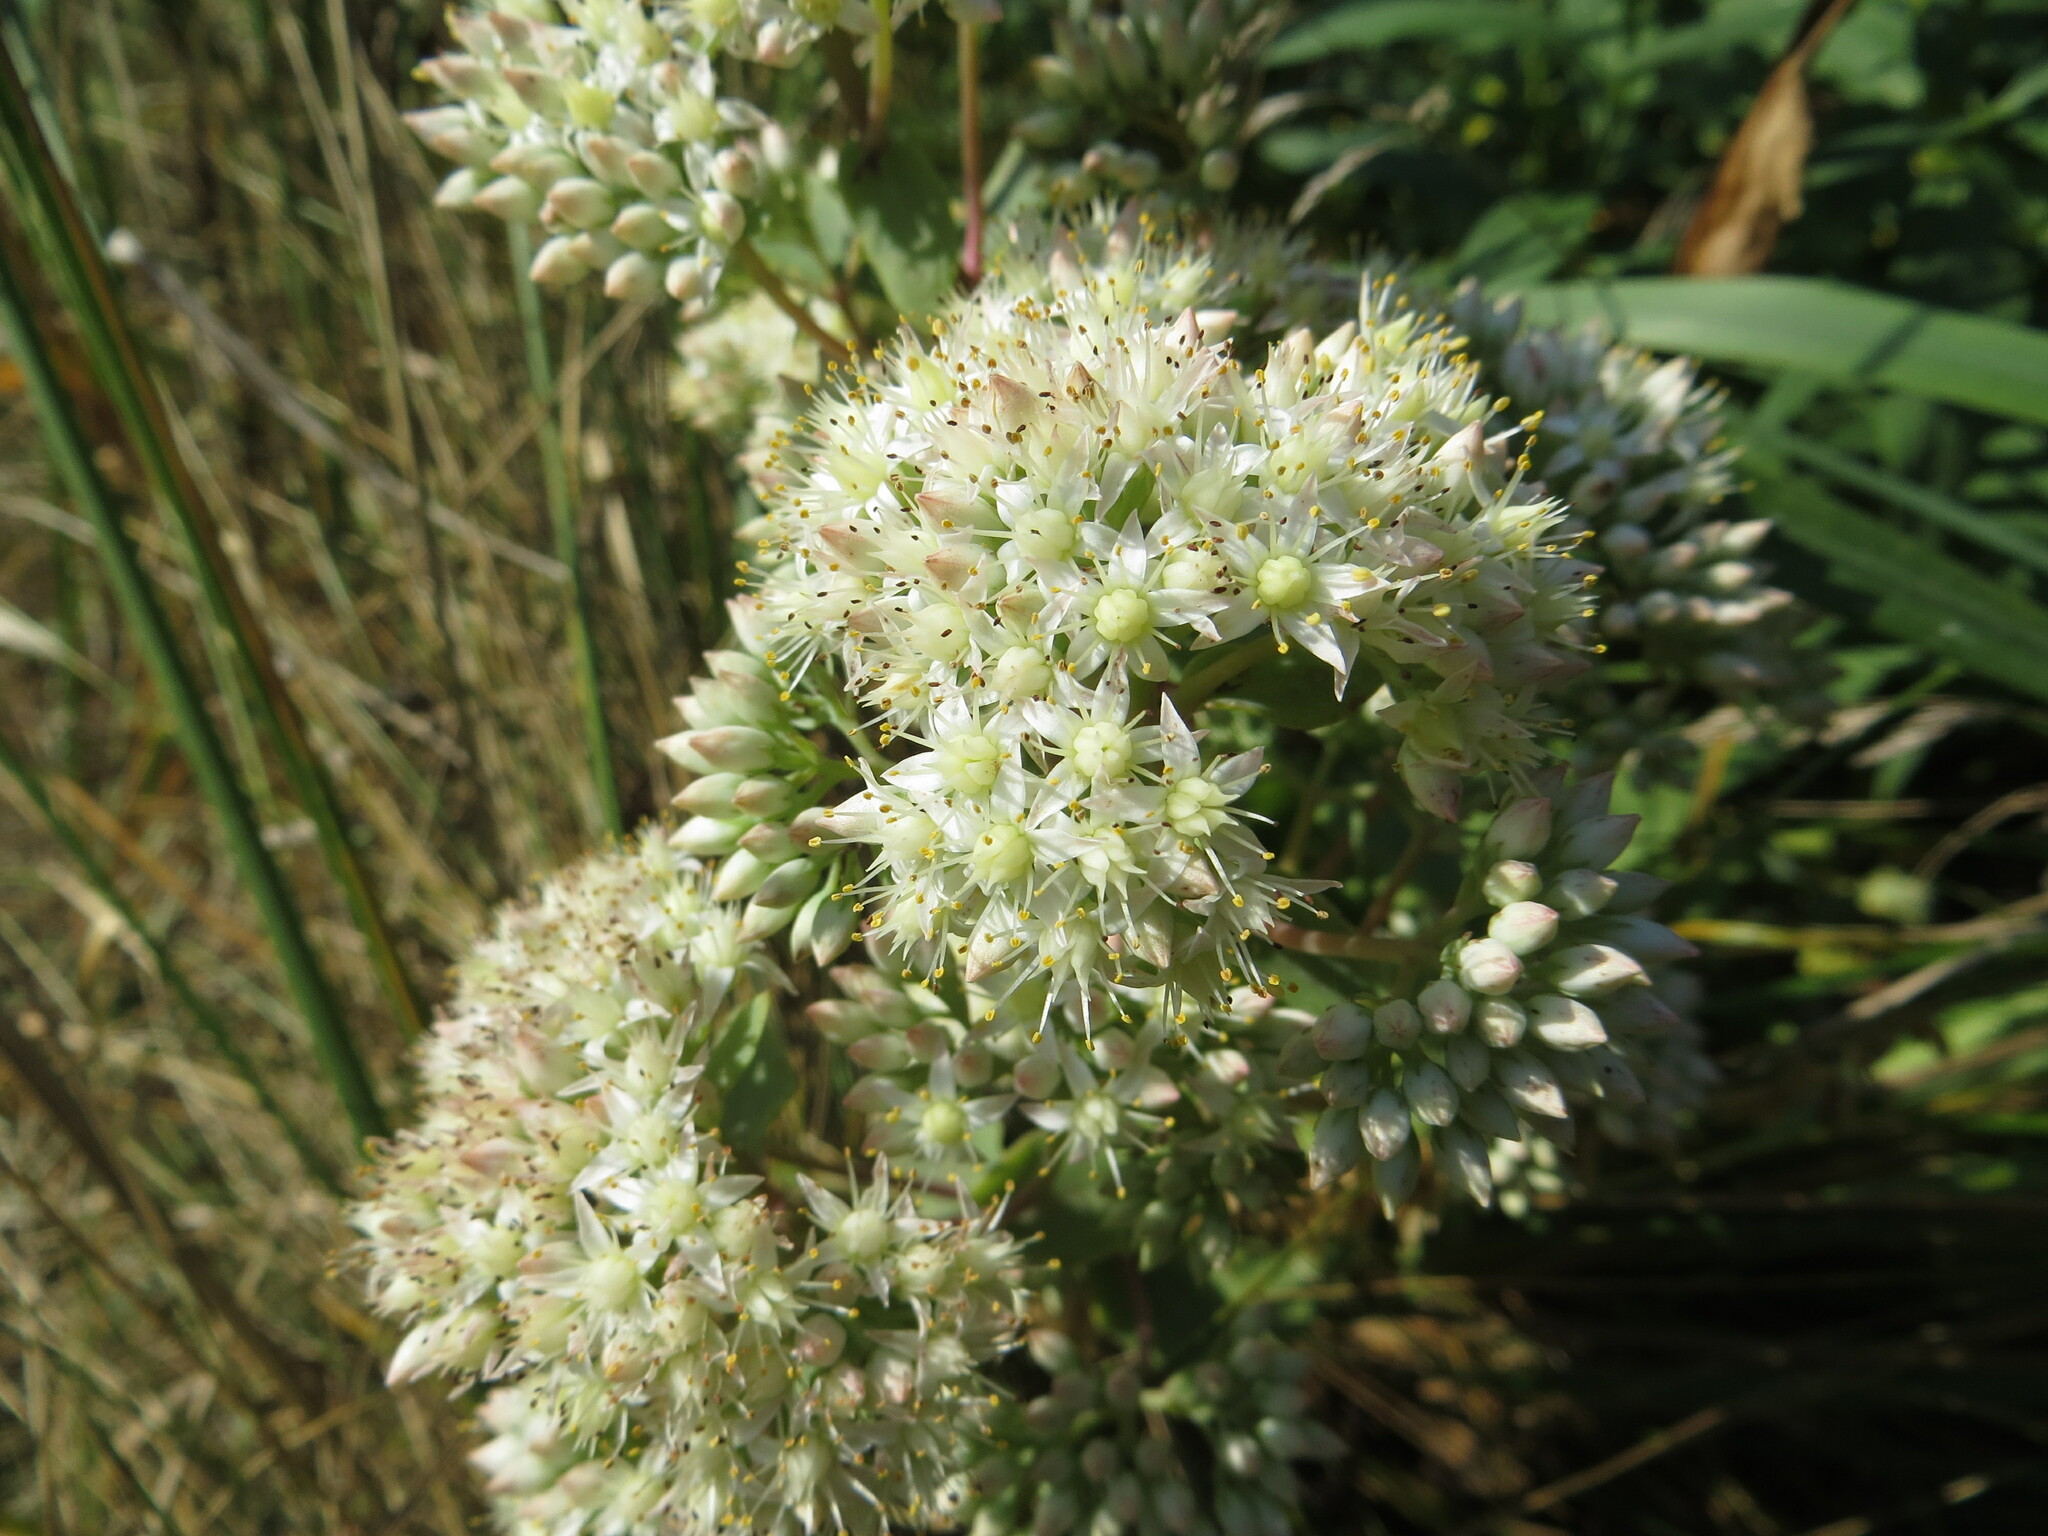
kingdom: Plantae
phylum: Tracheophyta
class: Magnoliopsida
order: Saxifragales
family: Crassulaceae
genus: Hylotelephium
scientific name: Hylotelephium maximum
